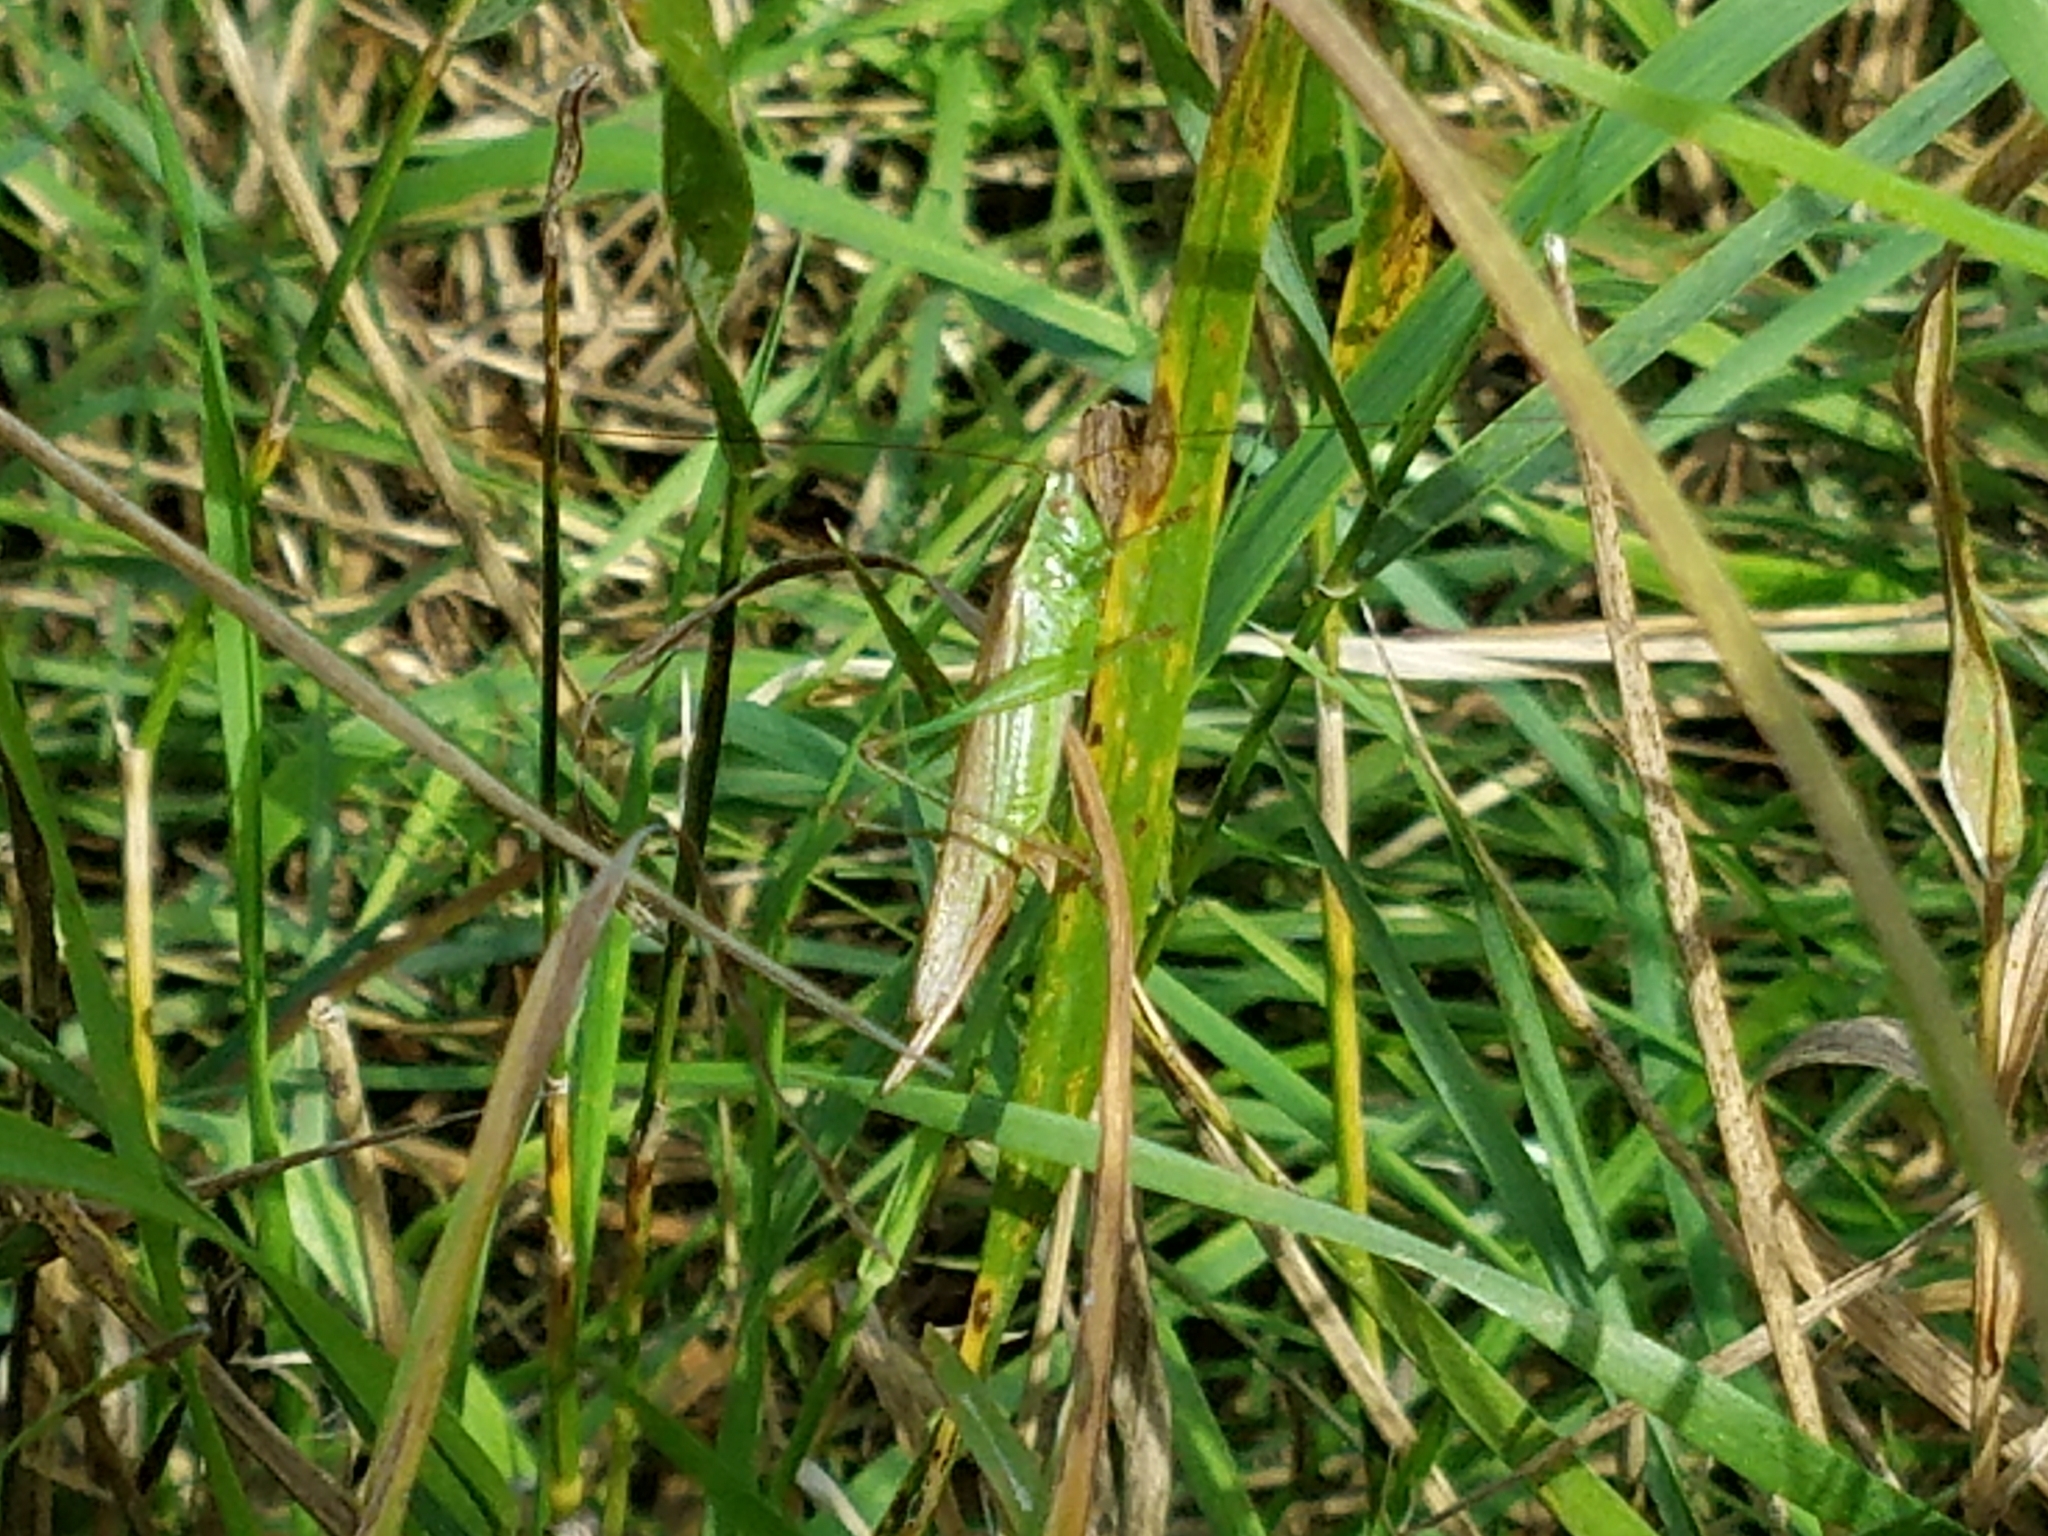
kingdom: Animalia
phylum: Arthropoda
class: Insecta
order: Orthoptera
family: Tettigoniidae
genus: Conocephalus
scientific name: Conocephalus fuscus
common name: Long-winged conehead
